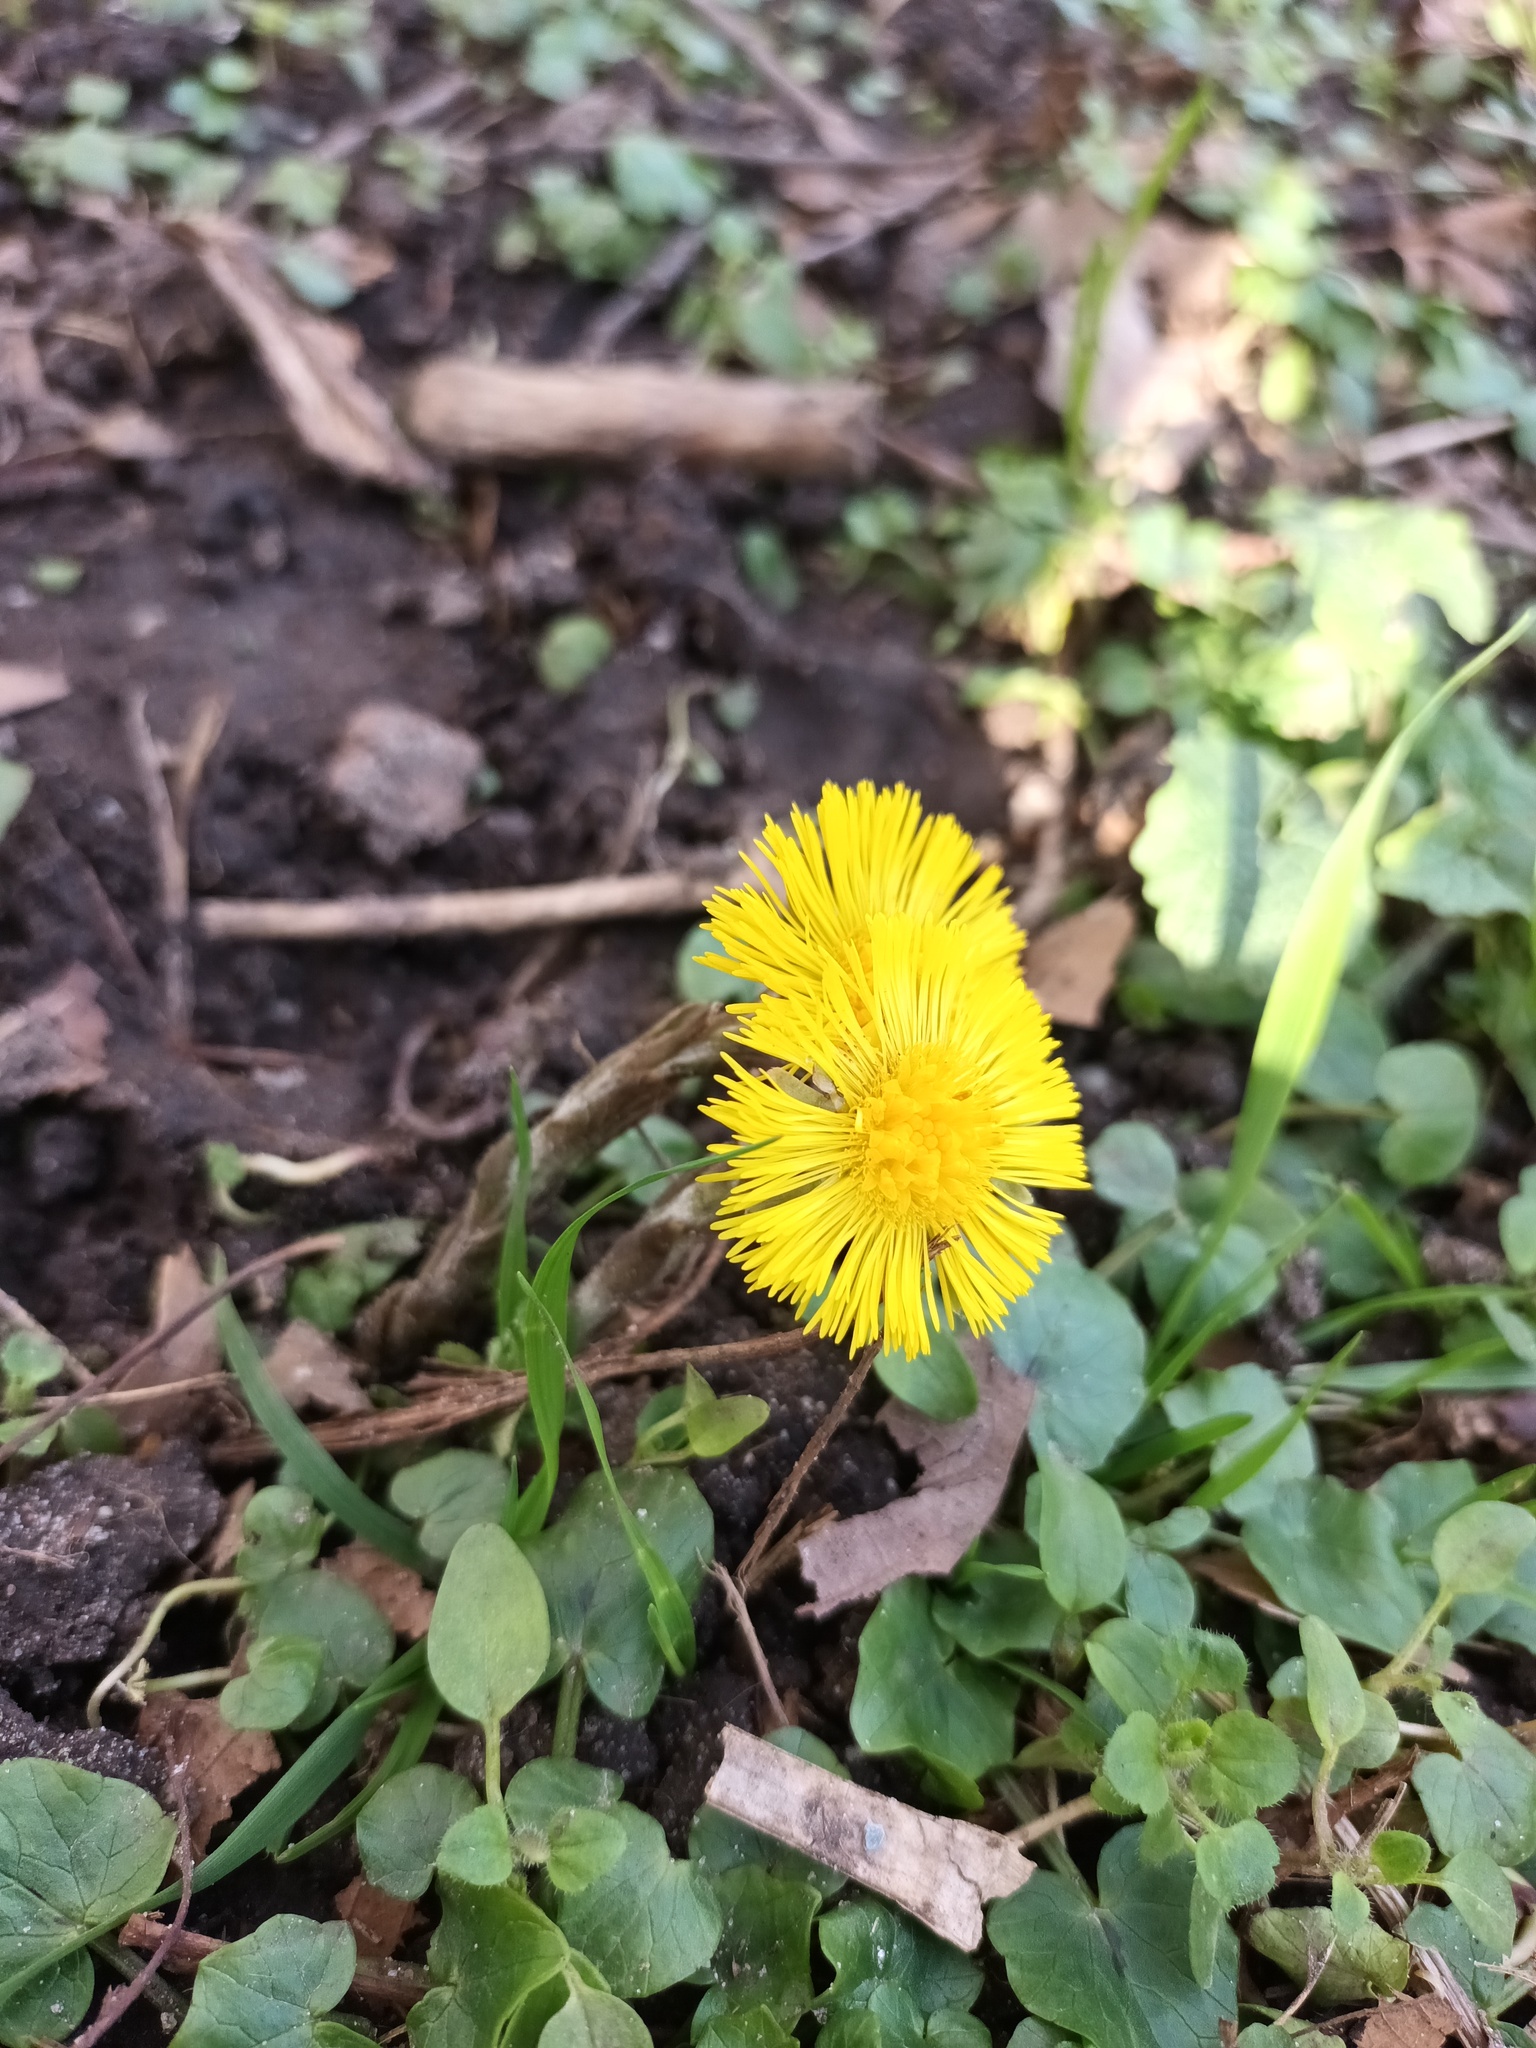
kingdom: Plantae
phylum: Tracheophyta
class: Magnoliopsida
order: Asterales
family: Asteraceae
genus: Tussilago
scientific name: Tussilago farfara
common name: Coltsfoot
